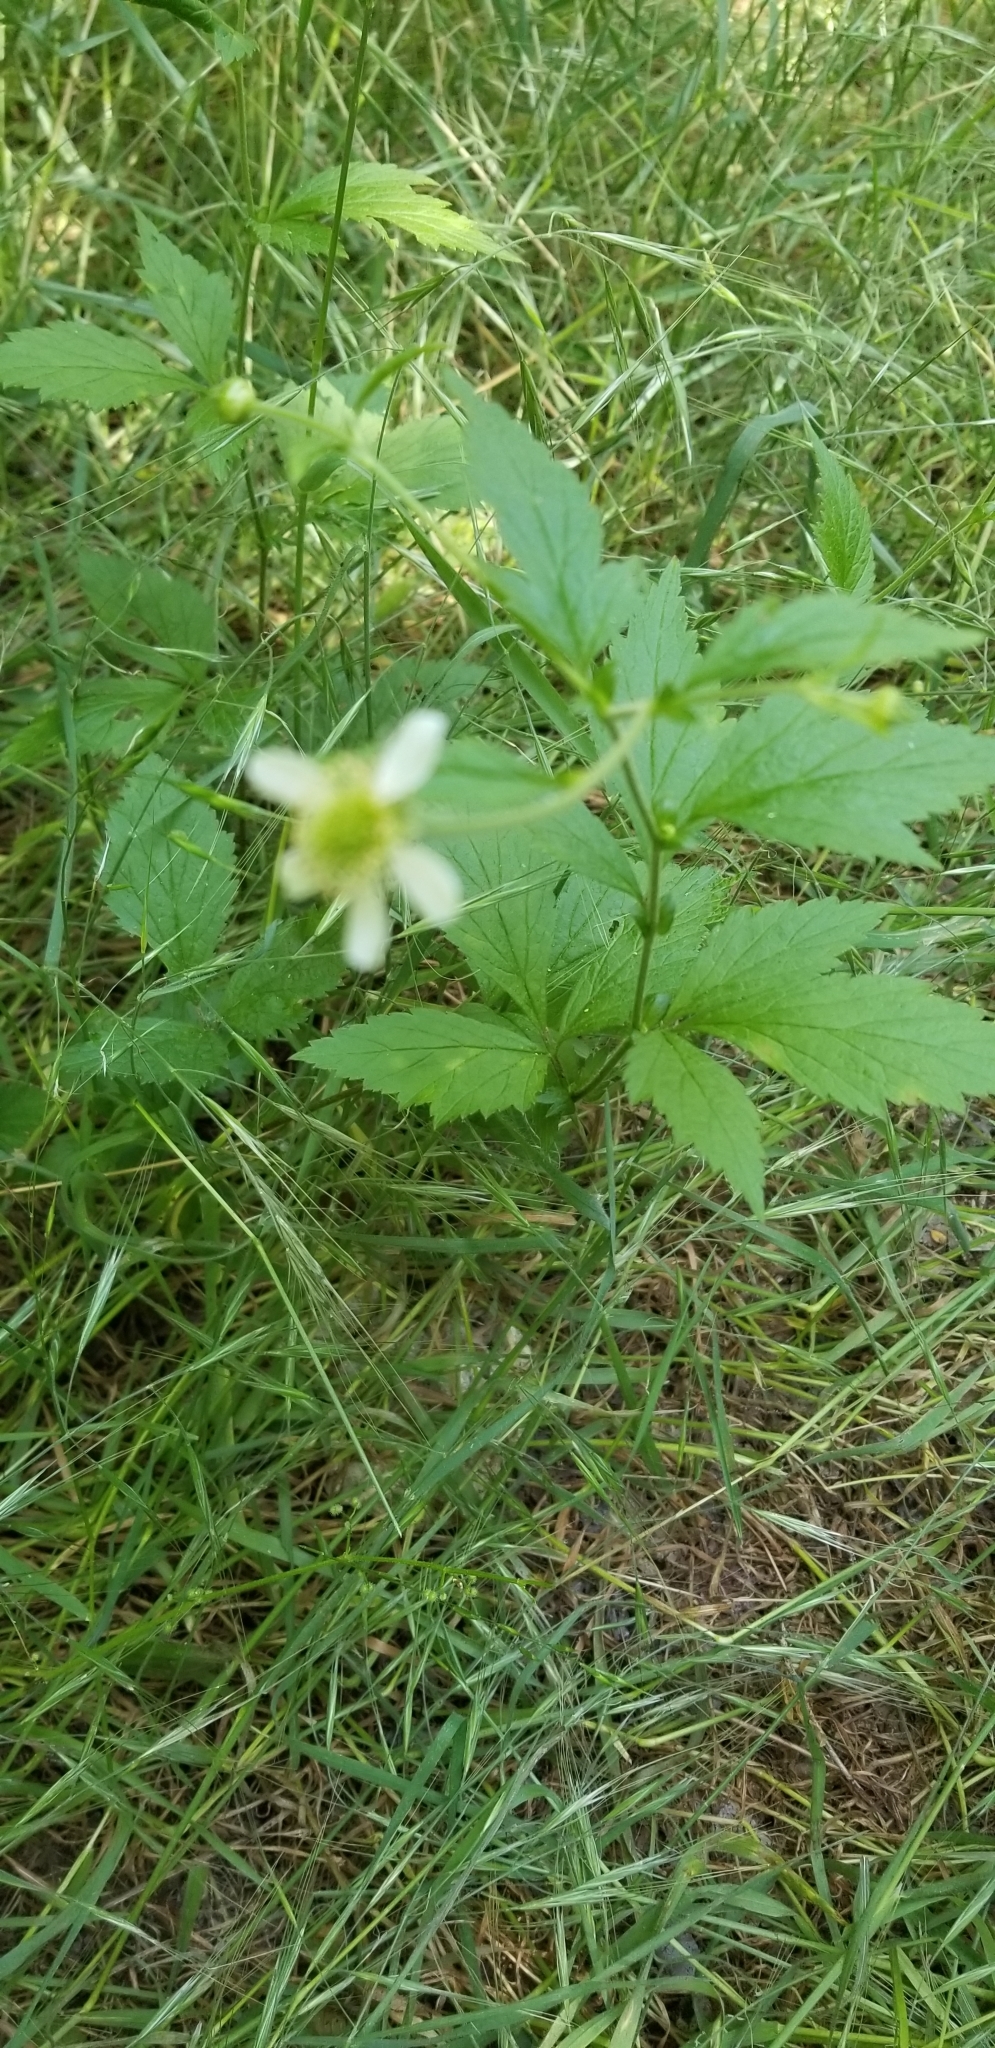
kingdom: Plantae
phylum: Tracheophyta
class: Magnoliopsida
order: Rosales
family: Rosaceae
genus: Geum
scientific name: Geum canadense
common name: White avens
